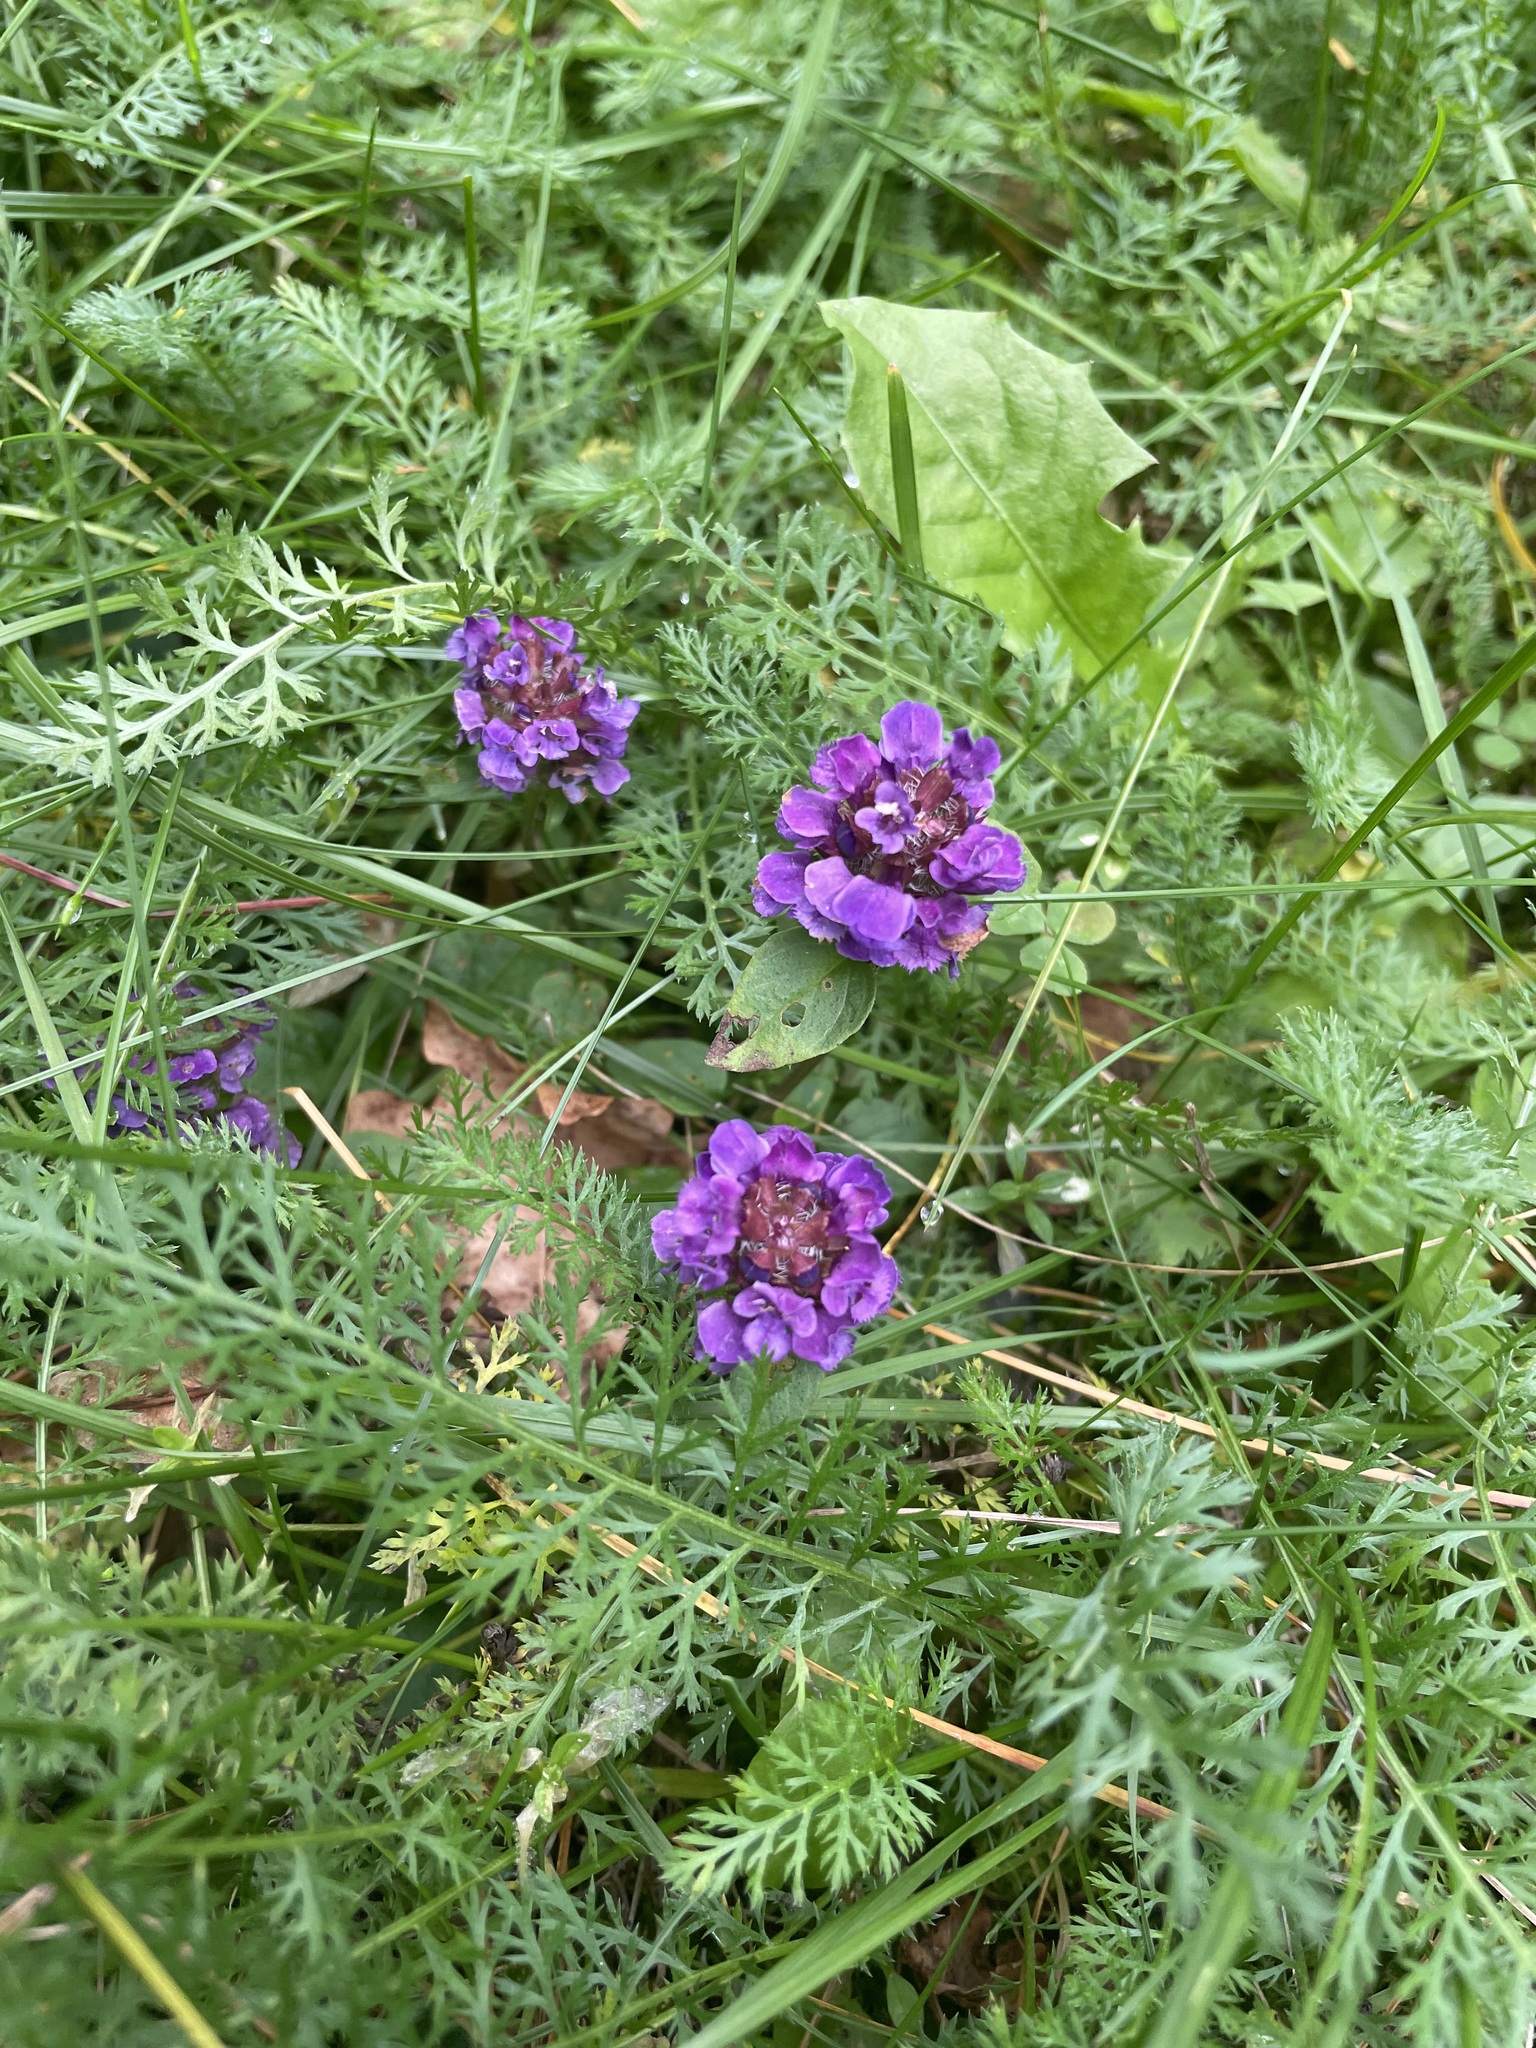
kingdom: Plantae
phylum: Tracheophyta
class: Magnoliopsida
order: Lamiales
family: Lamiaceae
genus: Prunella
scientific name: Prunella vulgaris
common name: Heal-all
